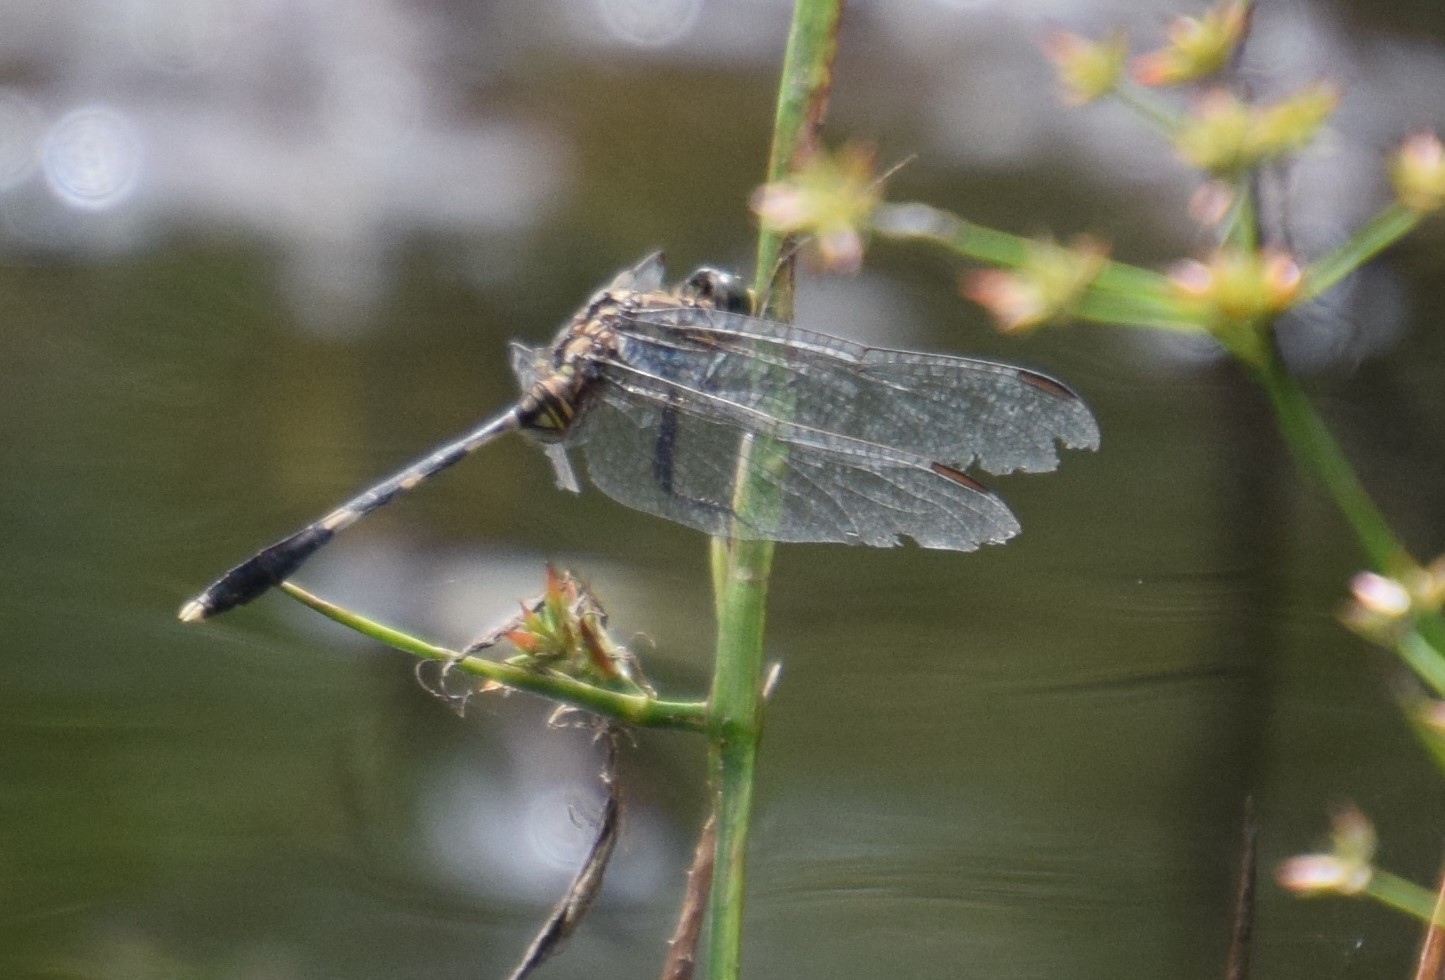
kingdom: Animalia
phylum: Arthropoda
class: Insecta
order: Odonata
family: Libellulidae
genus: Orthetrum
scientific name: Orthetrum sabina
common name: Slender skimmer
